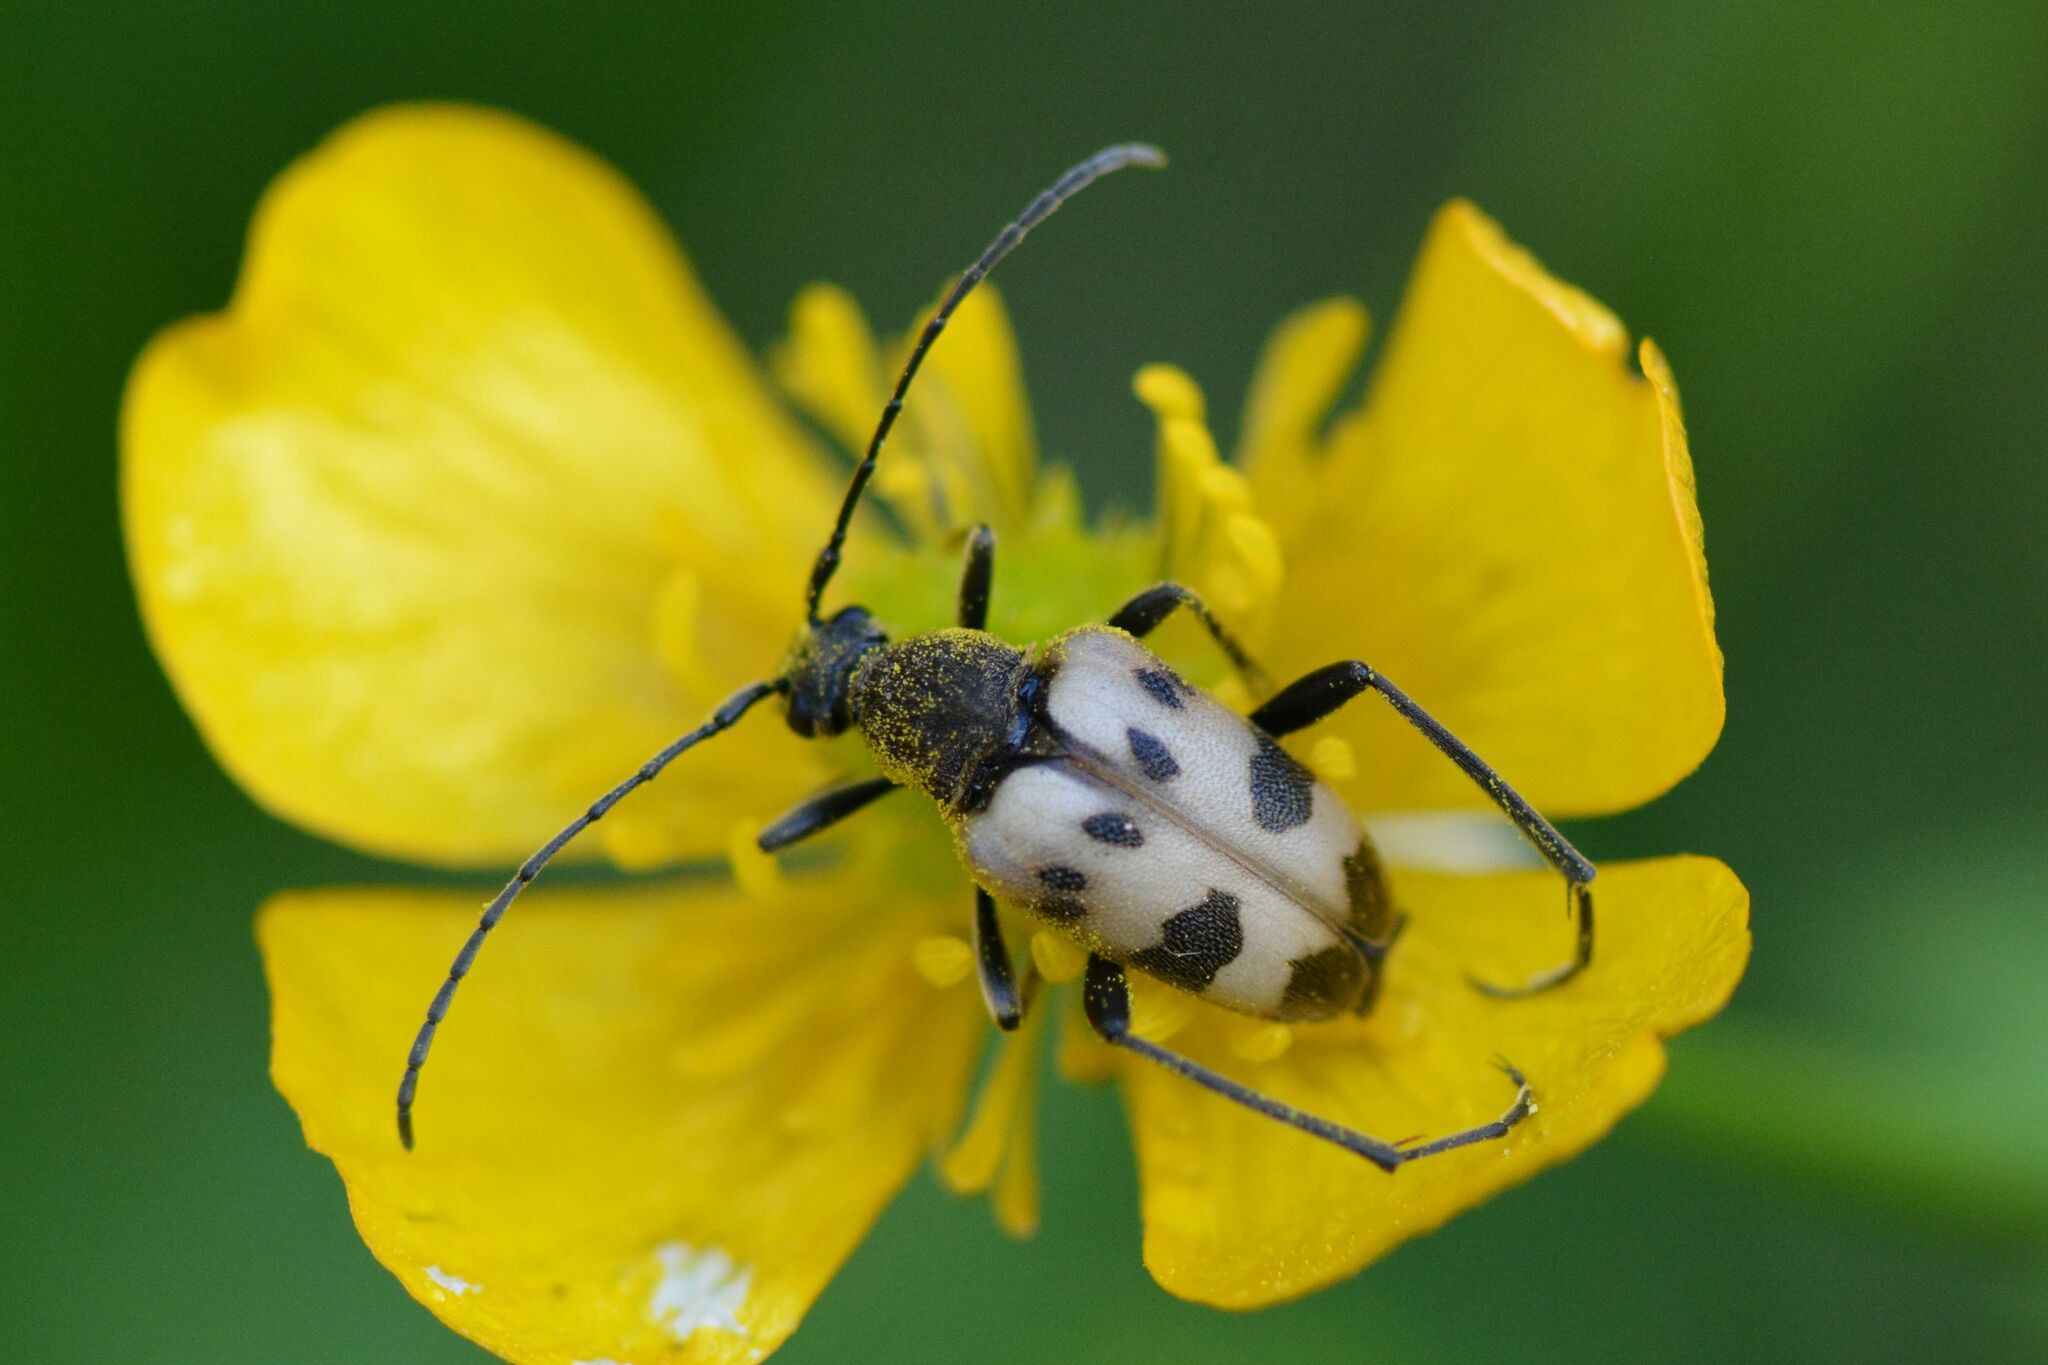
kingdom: Animalia
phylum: Arthropoda
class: Insecta
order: Coleoptera
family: Cerambycidae
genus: Pachytodes
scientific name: Pachytodes cerambyciformis
